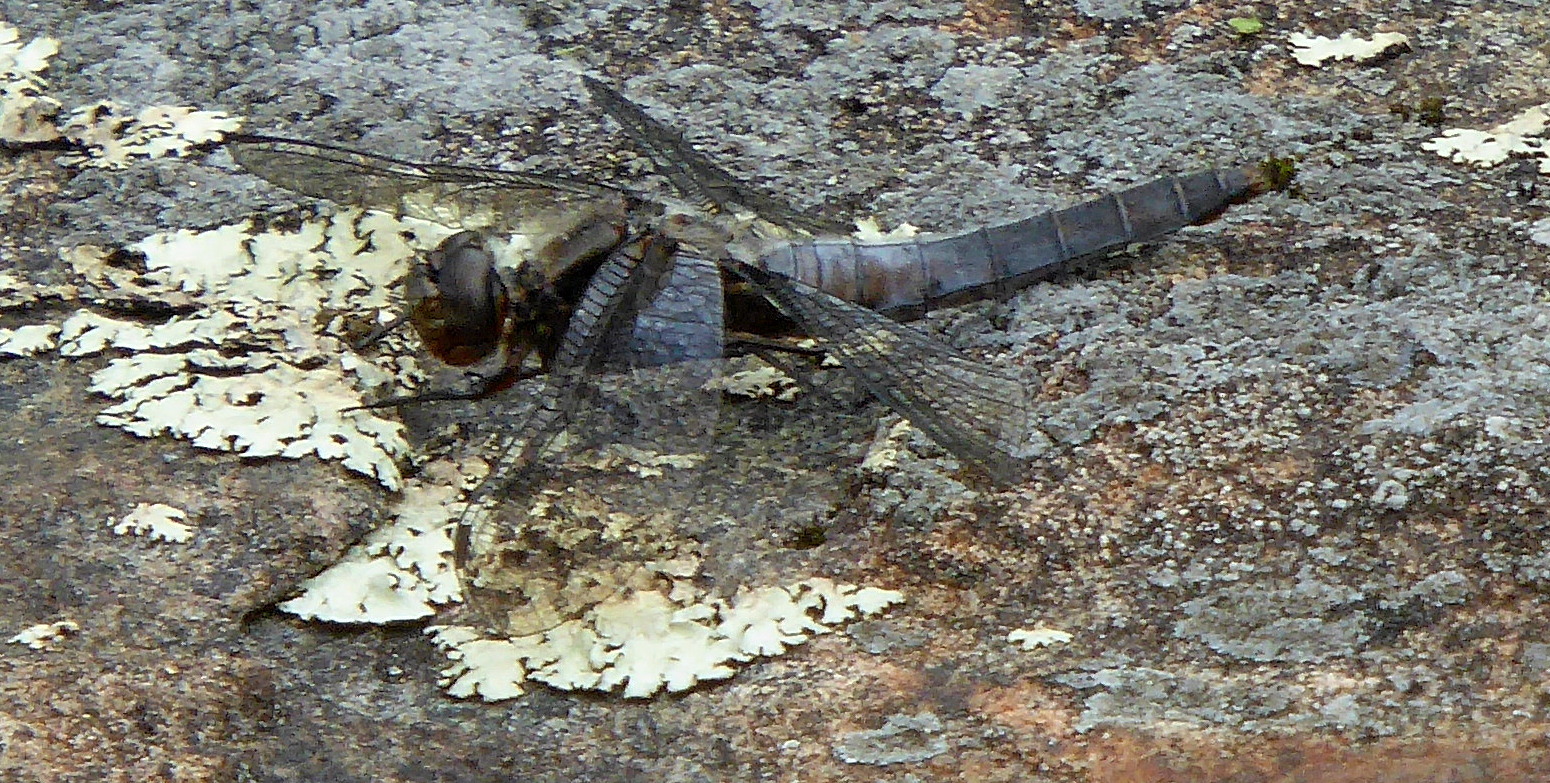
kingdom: Animalia
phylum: Arthropoda
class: Insecta
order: Odonata
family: Libellulidae
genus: Ladona
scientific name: Ladona julia
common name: Chalk-fronted corporal
